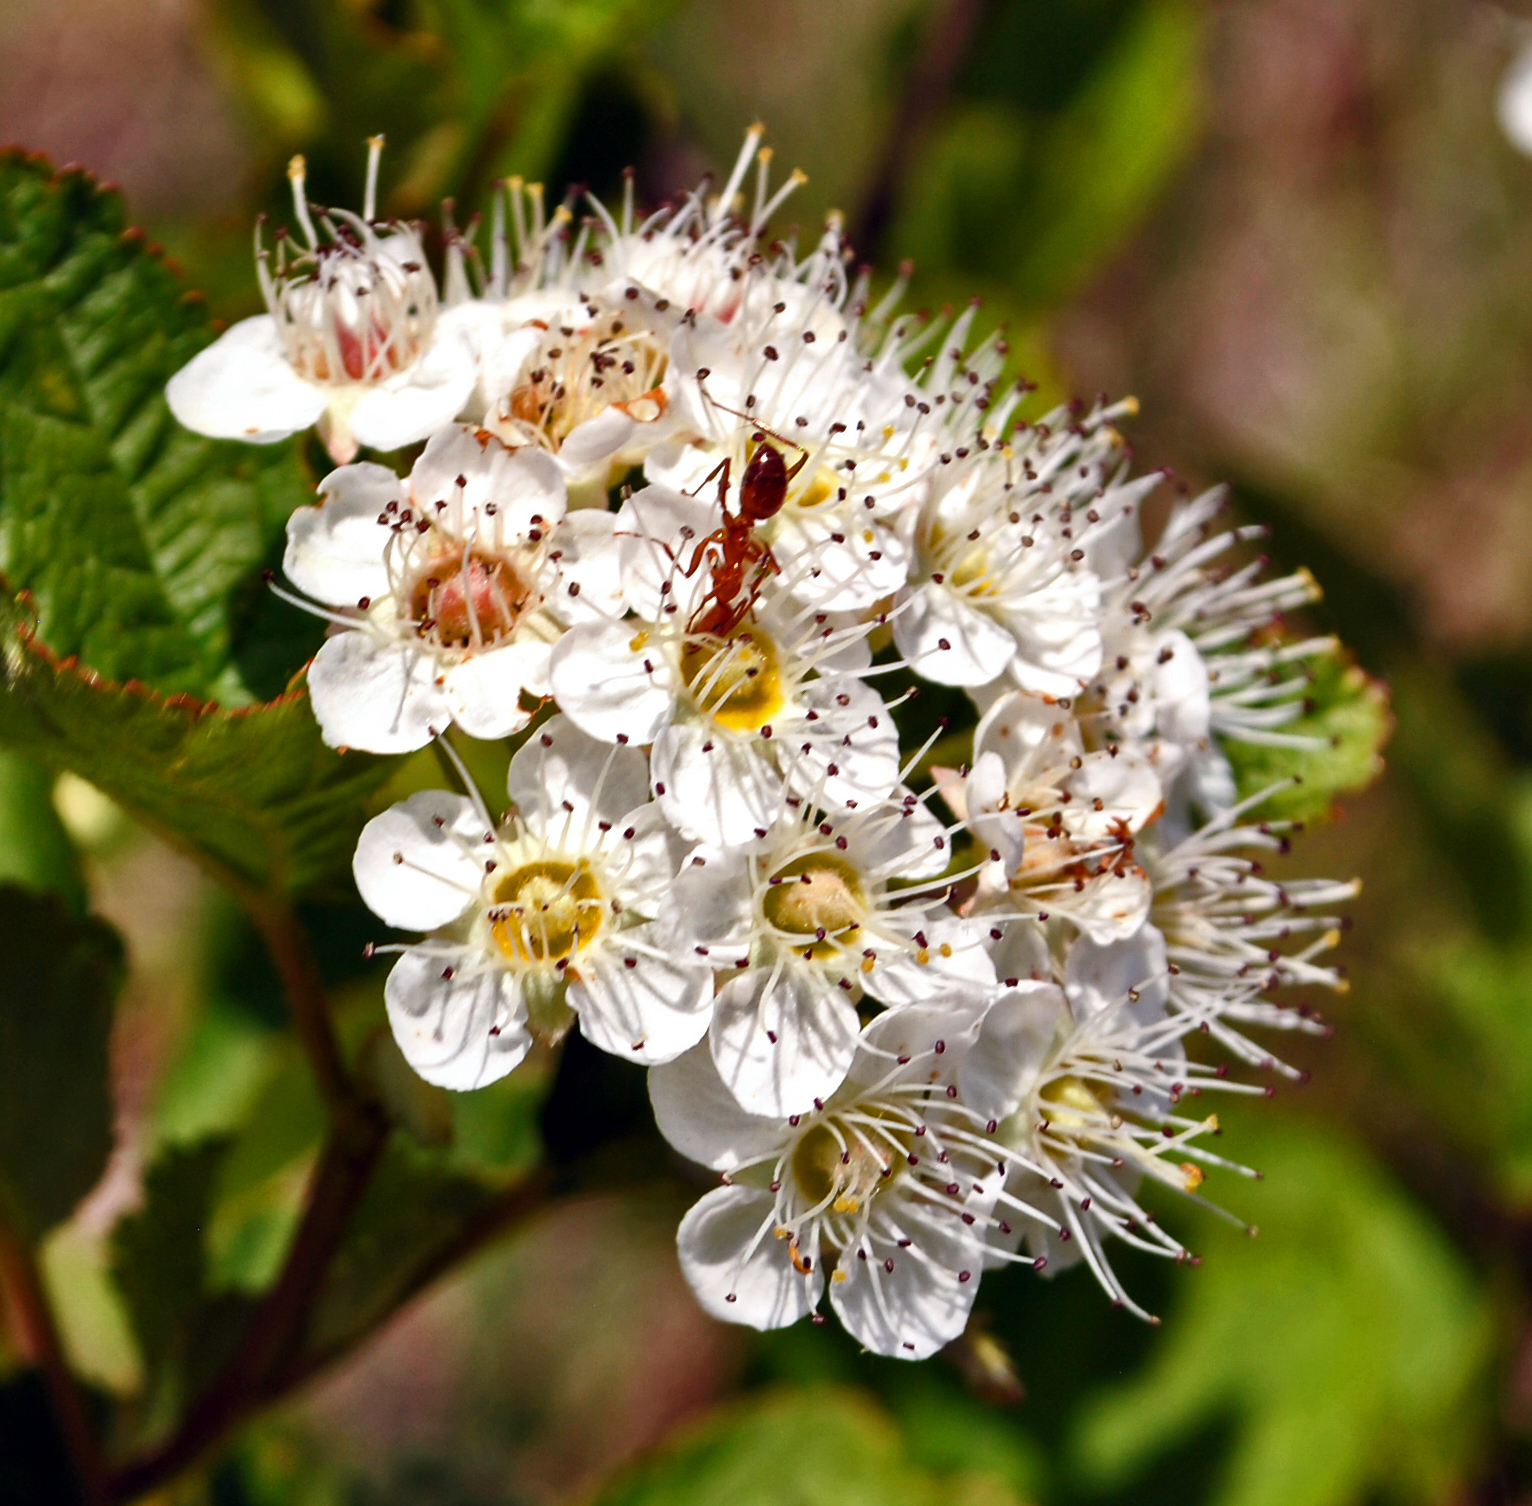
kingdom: Plantae
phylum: Tracheophyta
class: Magnoliopsida
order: Rosales
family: Rosaceae
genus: Physocarpus
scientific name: Physocarpus intermedius
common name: Midwestern ninebark
